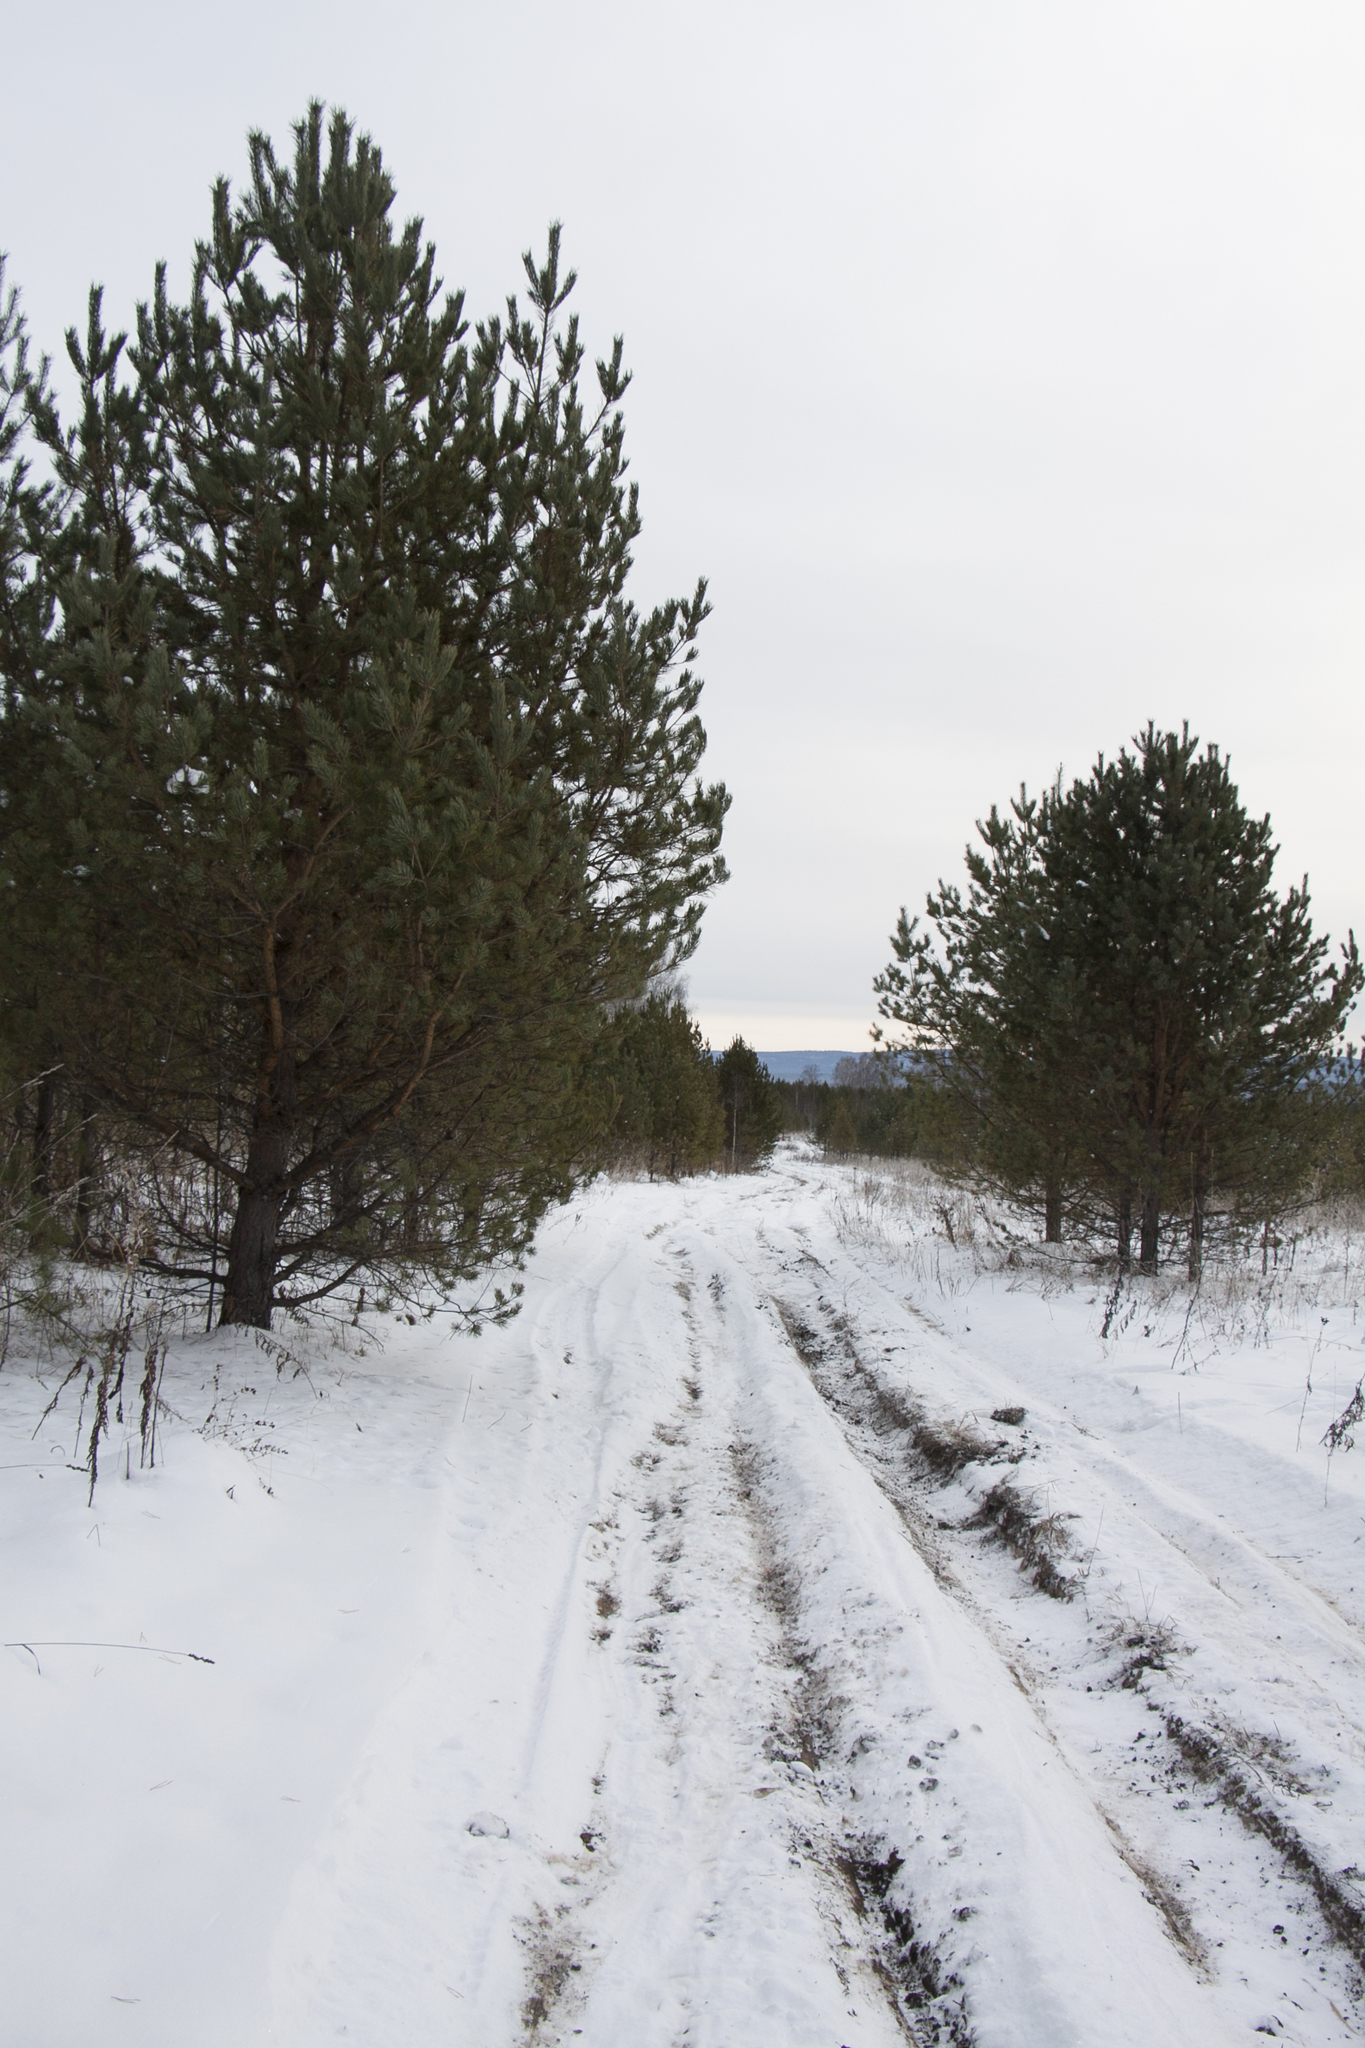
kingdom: Plantae
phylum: Tracheophyta
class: Pinopsida
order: Pinales
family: Pinaceae
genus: Pinus
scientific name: Pinus sylvestris
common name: Scots pine
